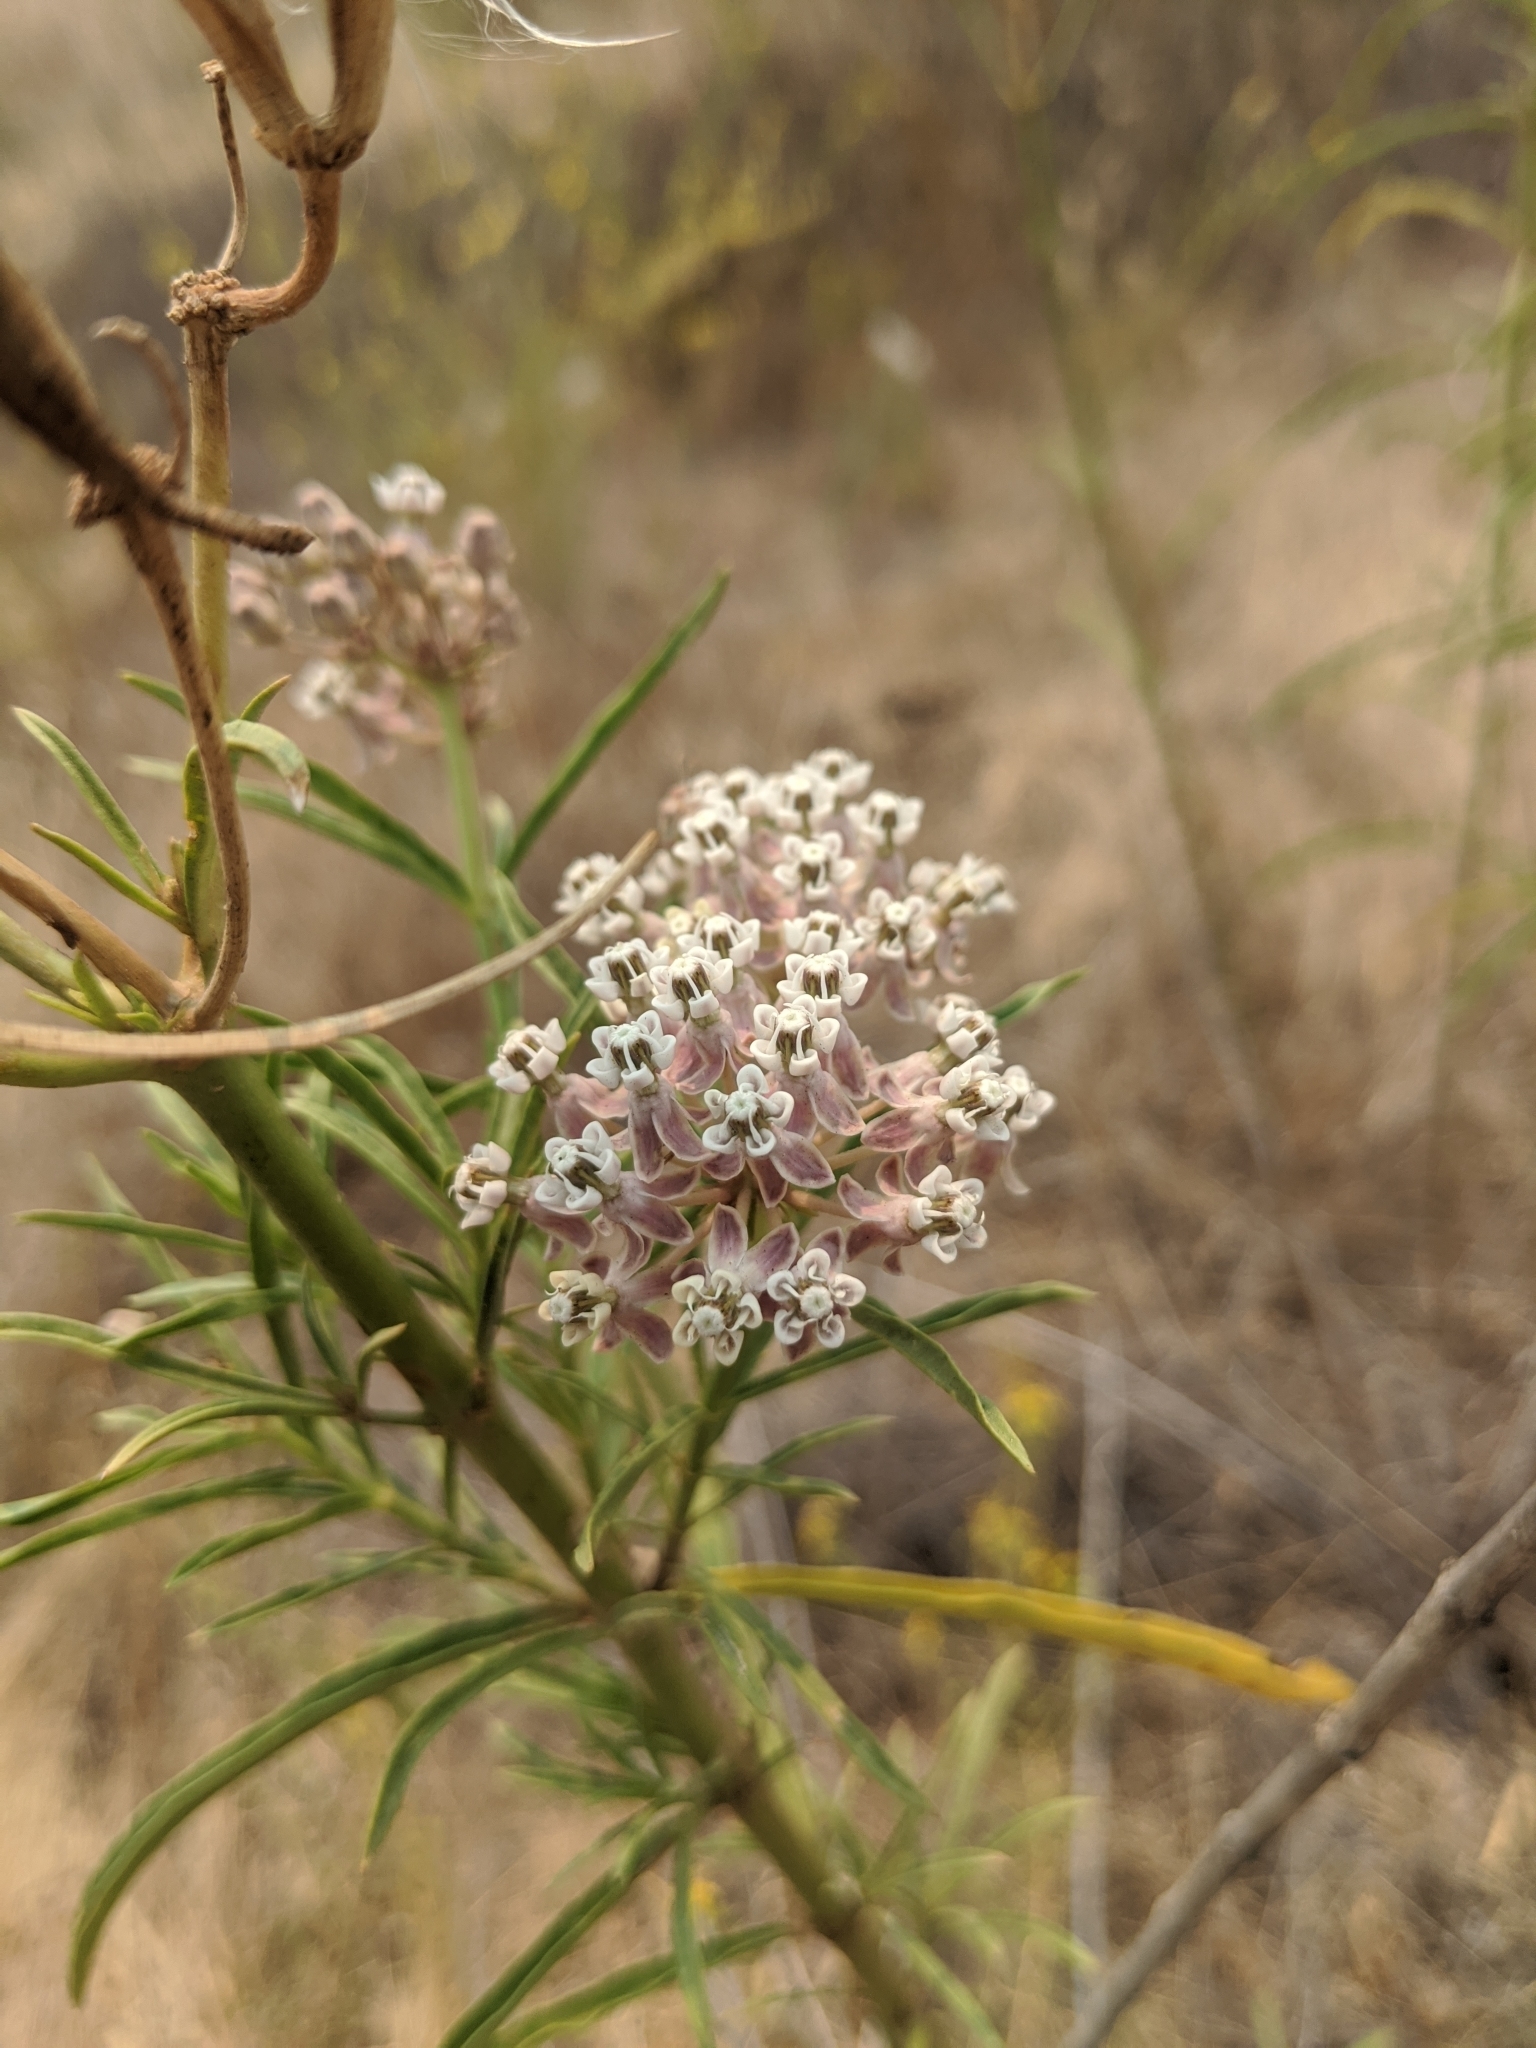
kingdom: Plantae
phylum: Tracheophyta
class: Magnoliopsida
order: Gentianales
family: Apocynaceae
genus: Asclepias
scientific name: Asclepias fascicularis
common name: Mexican milkweed
